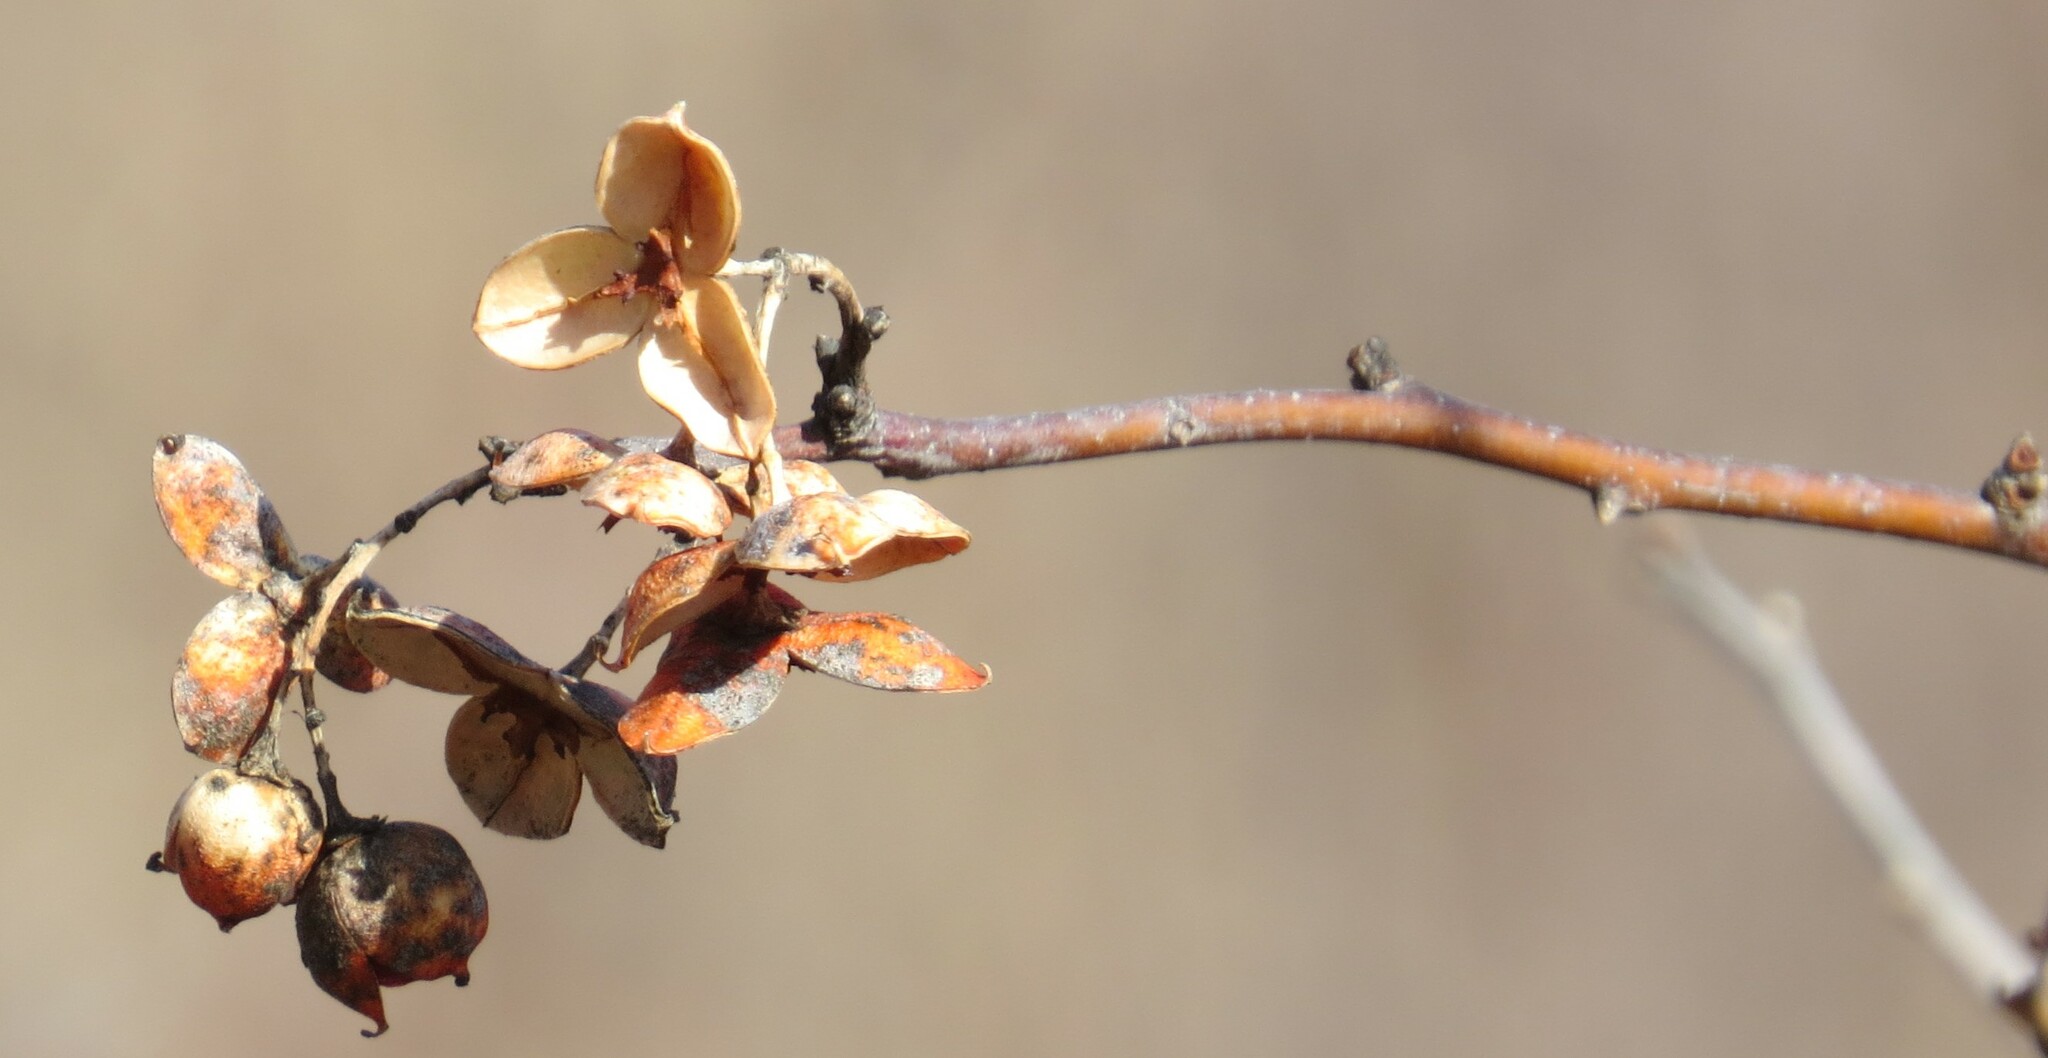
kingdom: Plantae
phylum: Tracheophyta
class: Magnoliopsida
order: Celastrales
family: Celastraceae
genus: Celastrus
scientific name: Celastrus scandens
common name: American bittersweet
